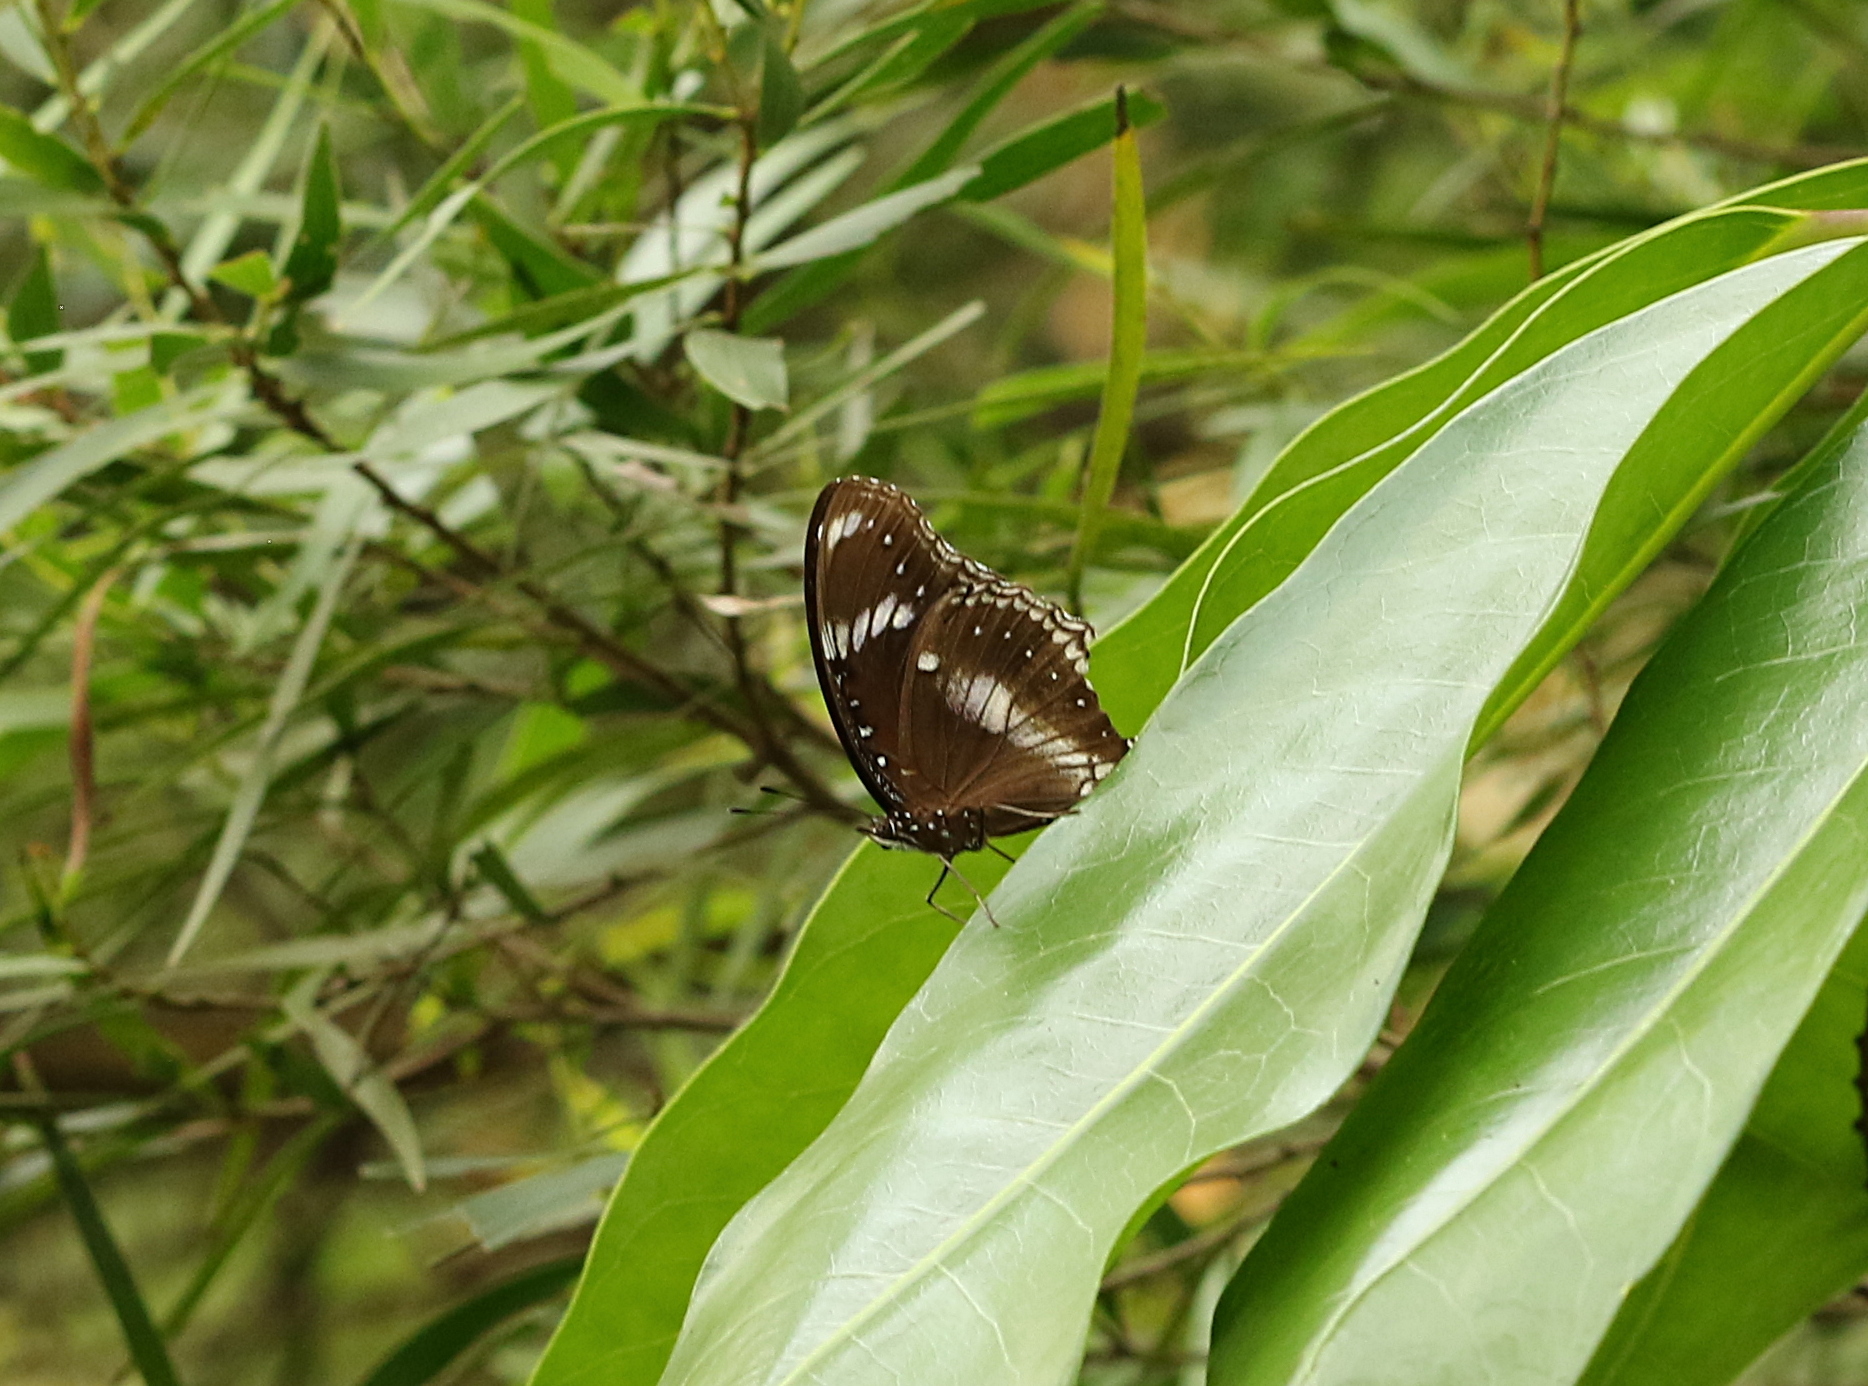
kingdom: Animalia
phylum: Arthropoda
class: Insecta
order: Lepidoptera
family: Nymphalidae
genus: Hypolimnas
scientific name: Hypolimnas bolina
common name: Great eggfly
